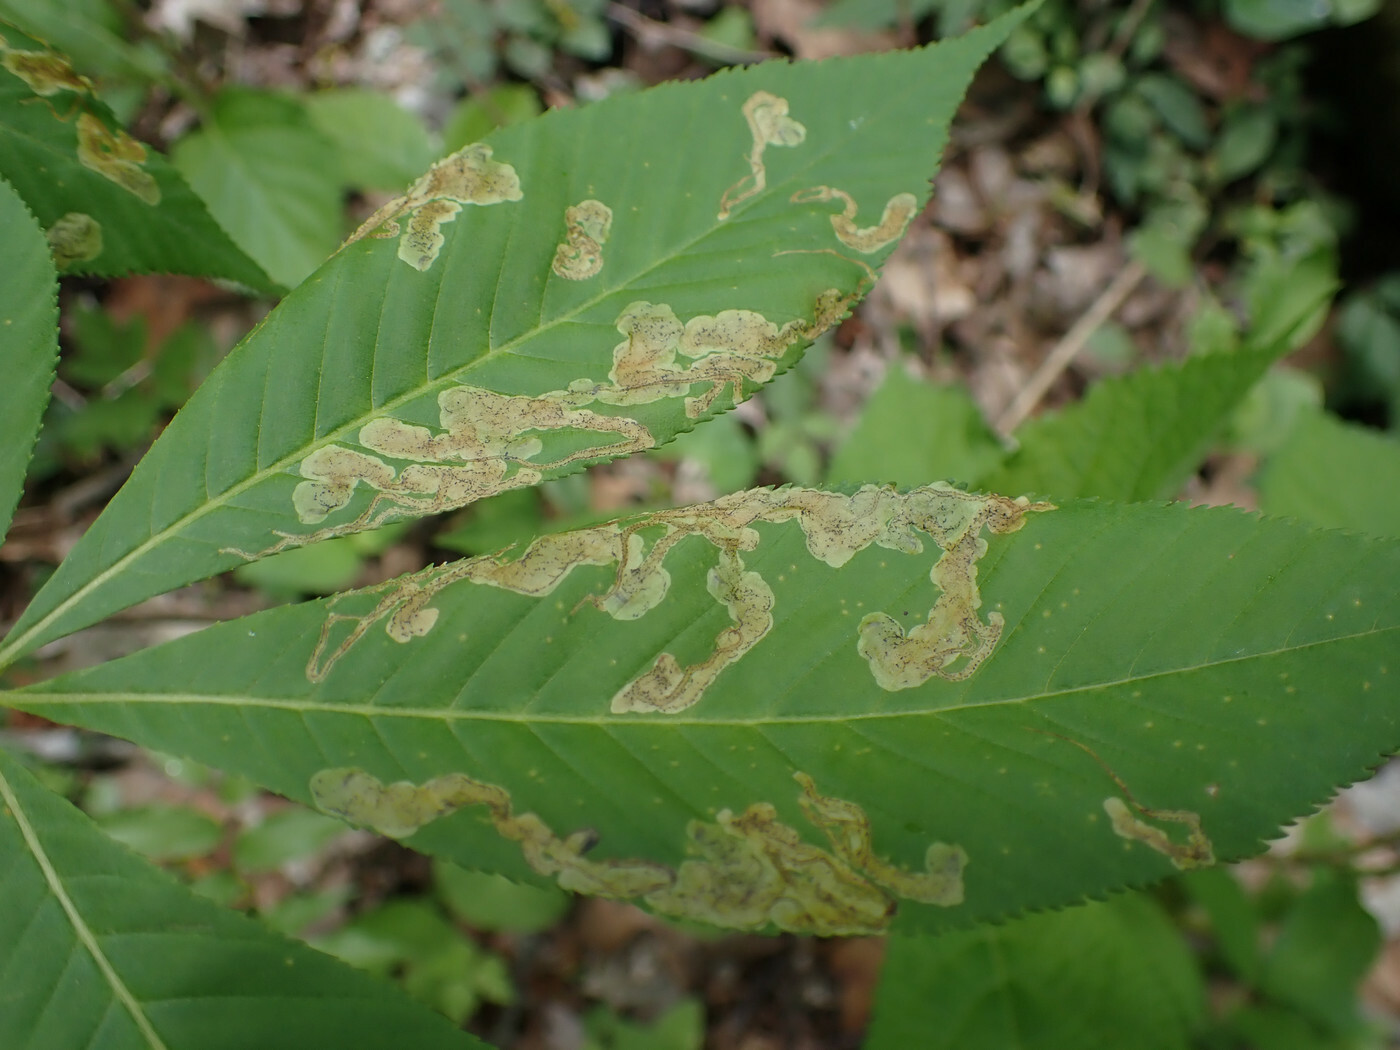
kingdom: Animalia
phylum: Arthropoda
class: Insecta
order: Diptera
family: Agromyzidae
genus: Phytomyza
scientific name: Phytomyza aesculi
